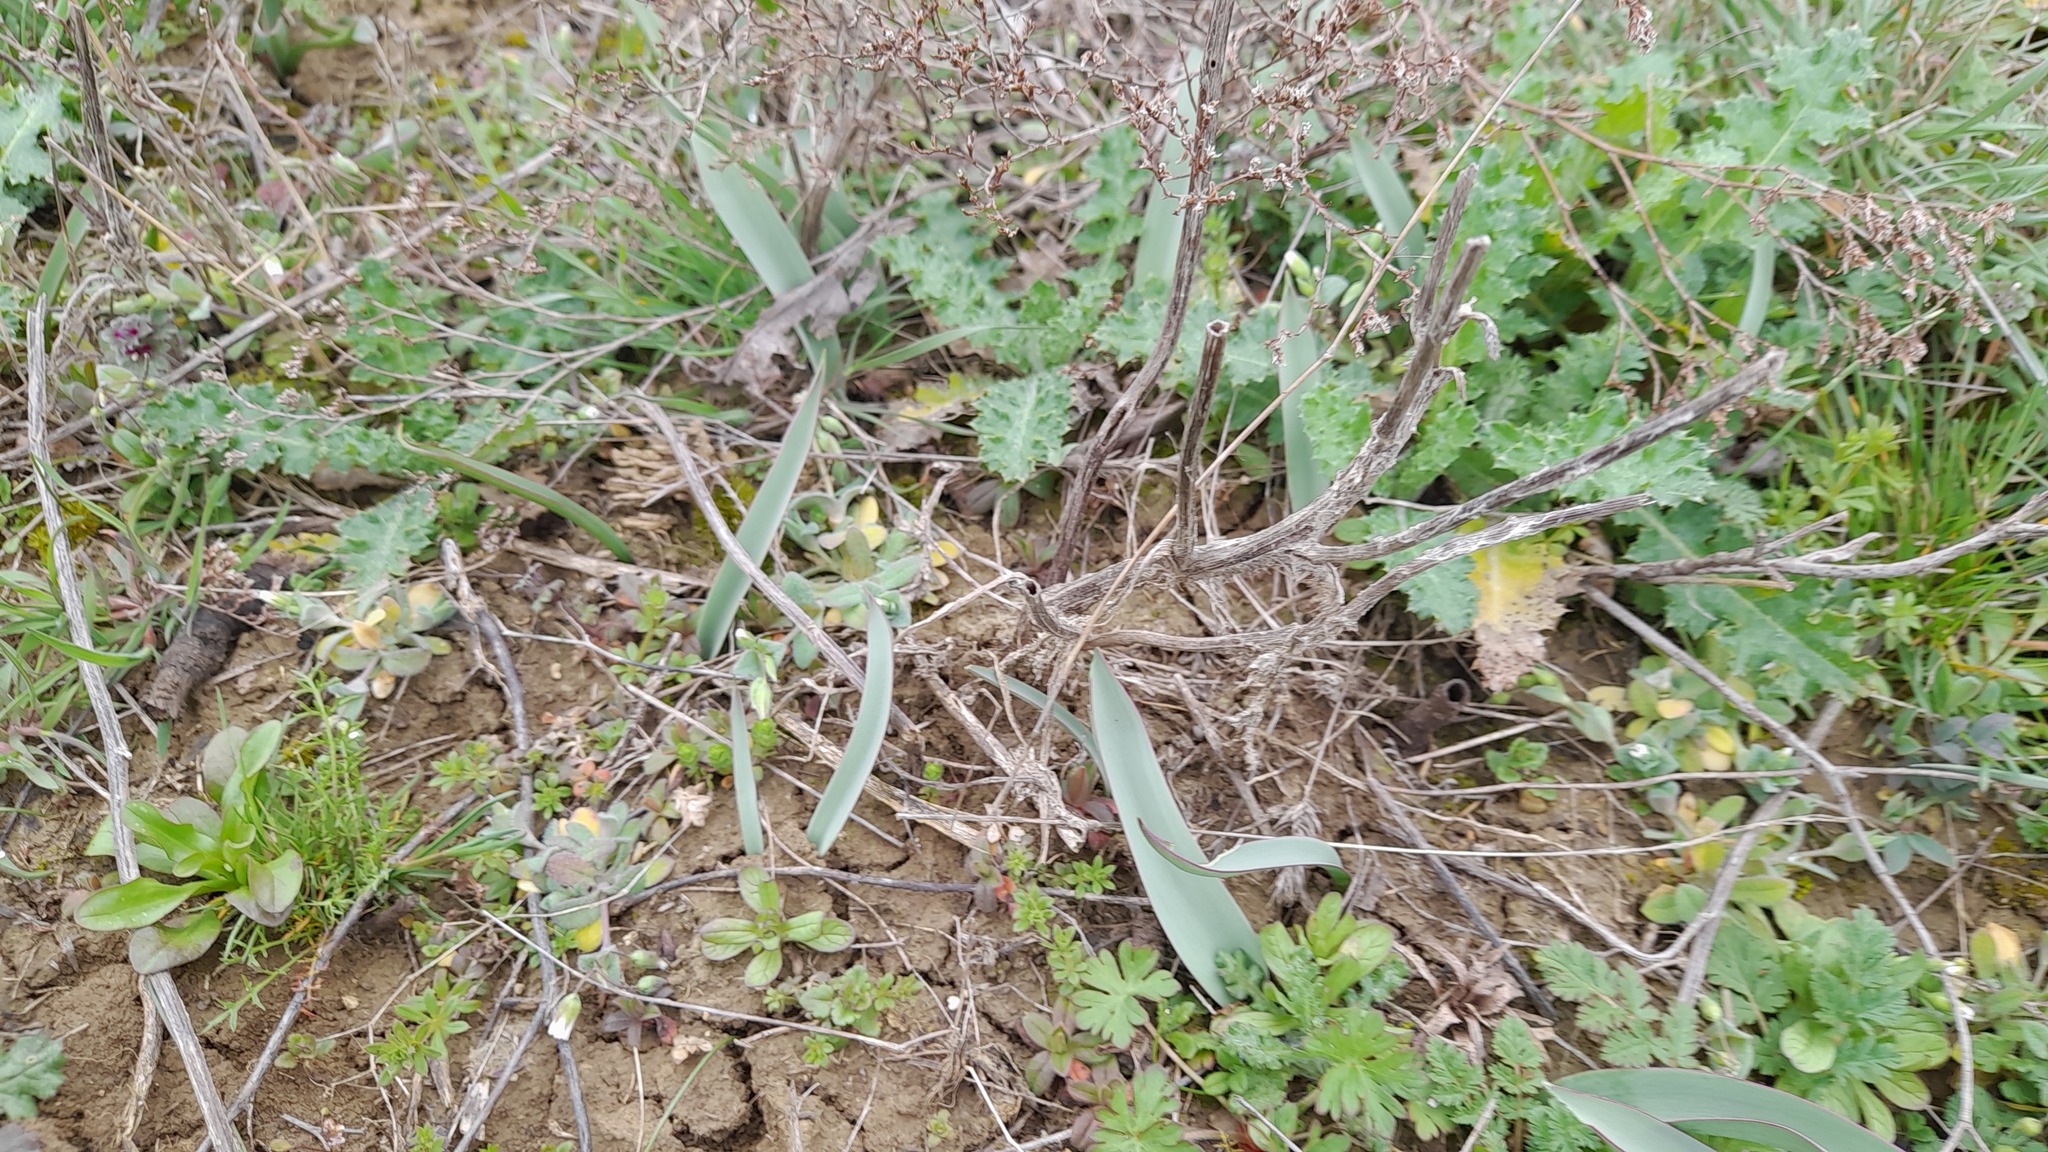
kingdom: Plantae
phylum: Tracheophyta
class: Liliopsida
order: Liliales
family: Liliaceae
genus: Tulipa
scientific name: Tulipa suaveolens
